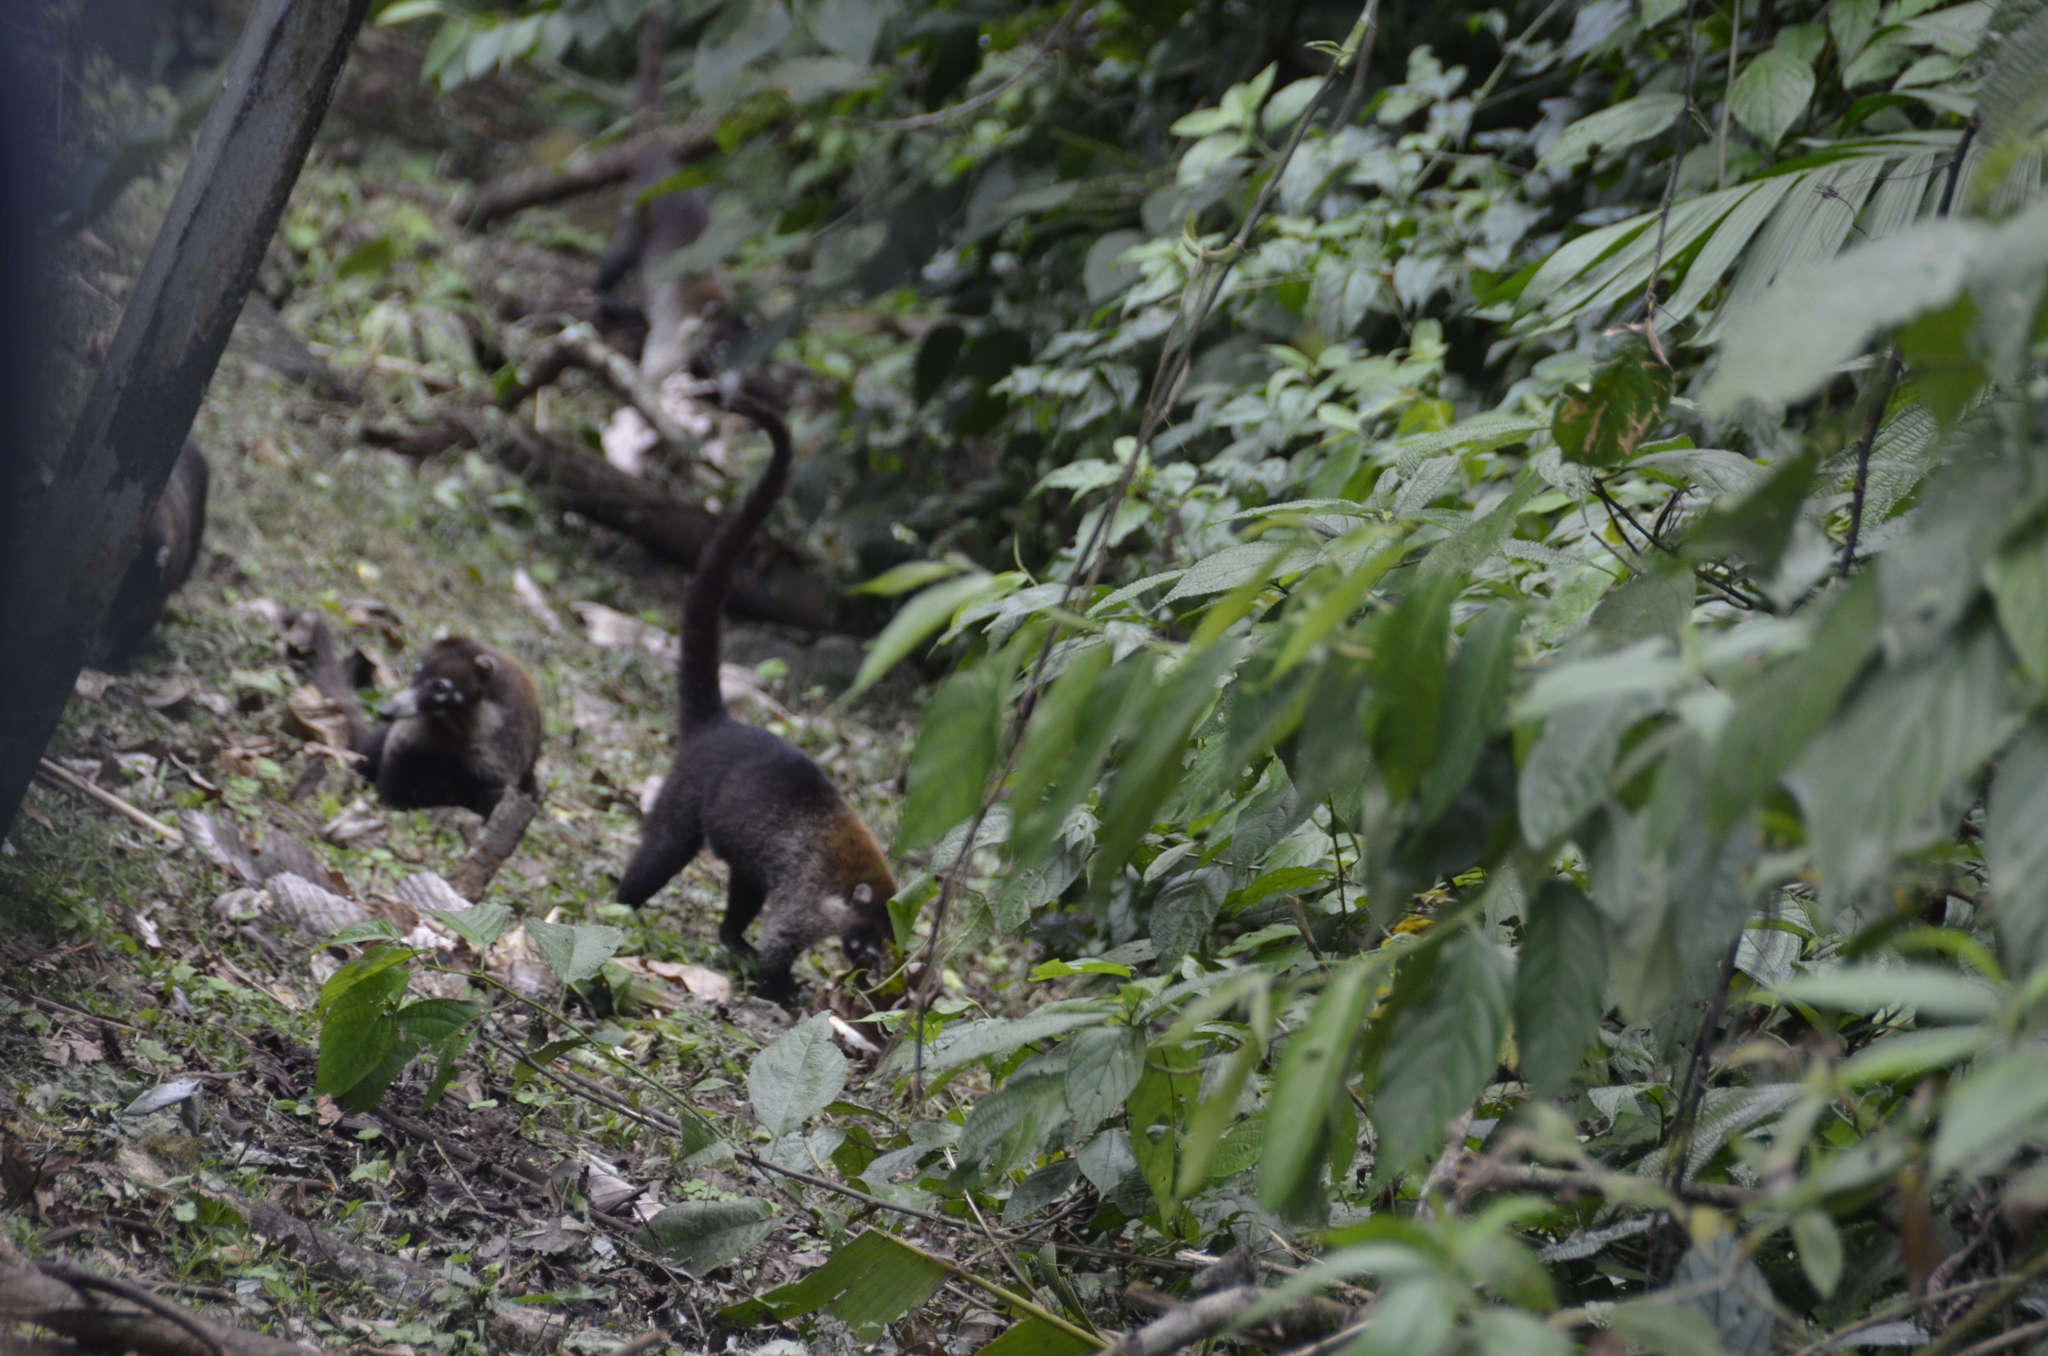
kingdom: Animalia
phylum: Chordata
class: Mammalia
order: Carnivora
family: Procyonidae
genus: Nasua
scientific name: Nasua narica
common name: White-nosed coati
